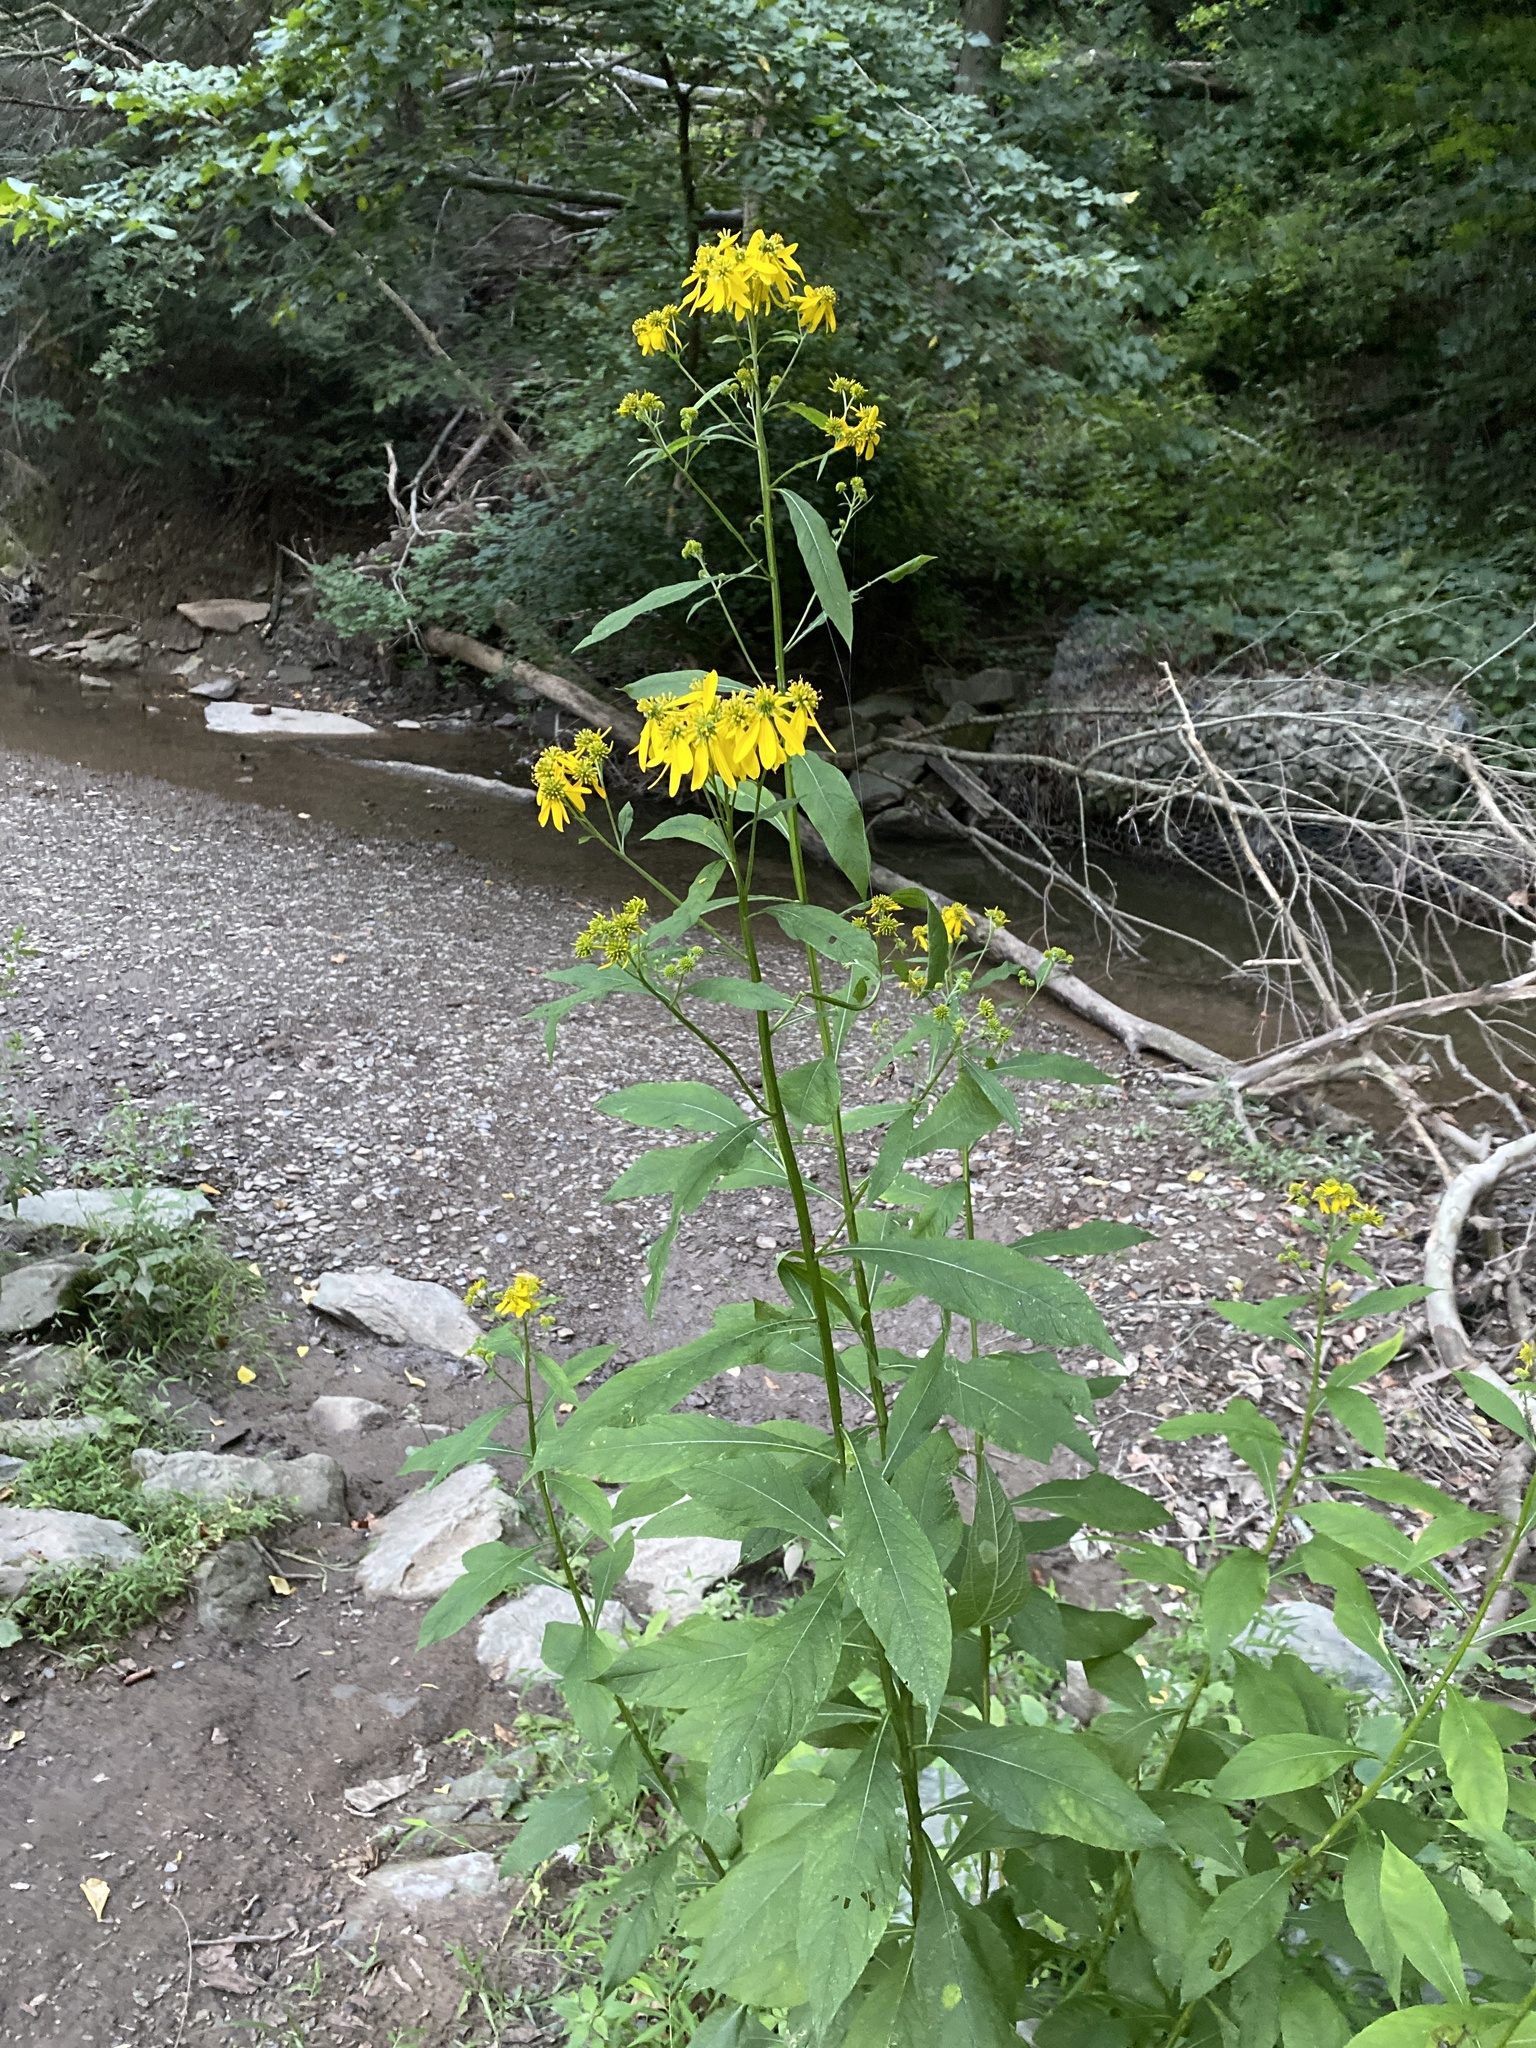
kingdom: Plantae
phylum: Tracheophyta
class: Magnoliopsida
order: Asterales
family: Asteraceae
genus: Verbesina
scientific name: Verbesina alternifolia
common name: Wingstem
